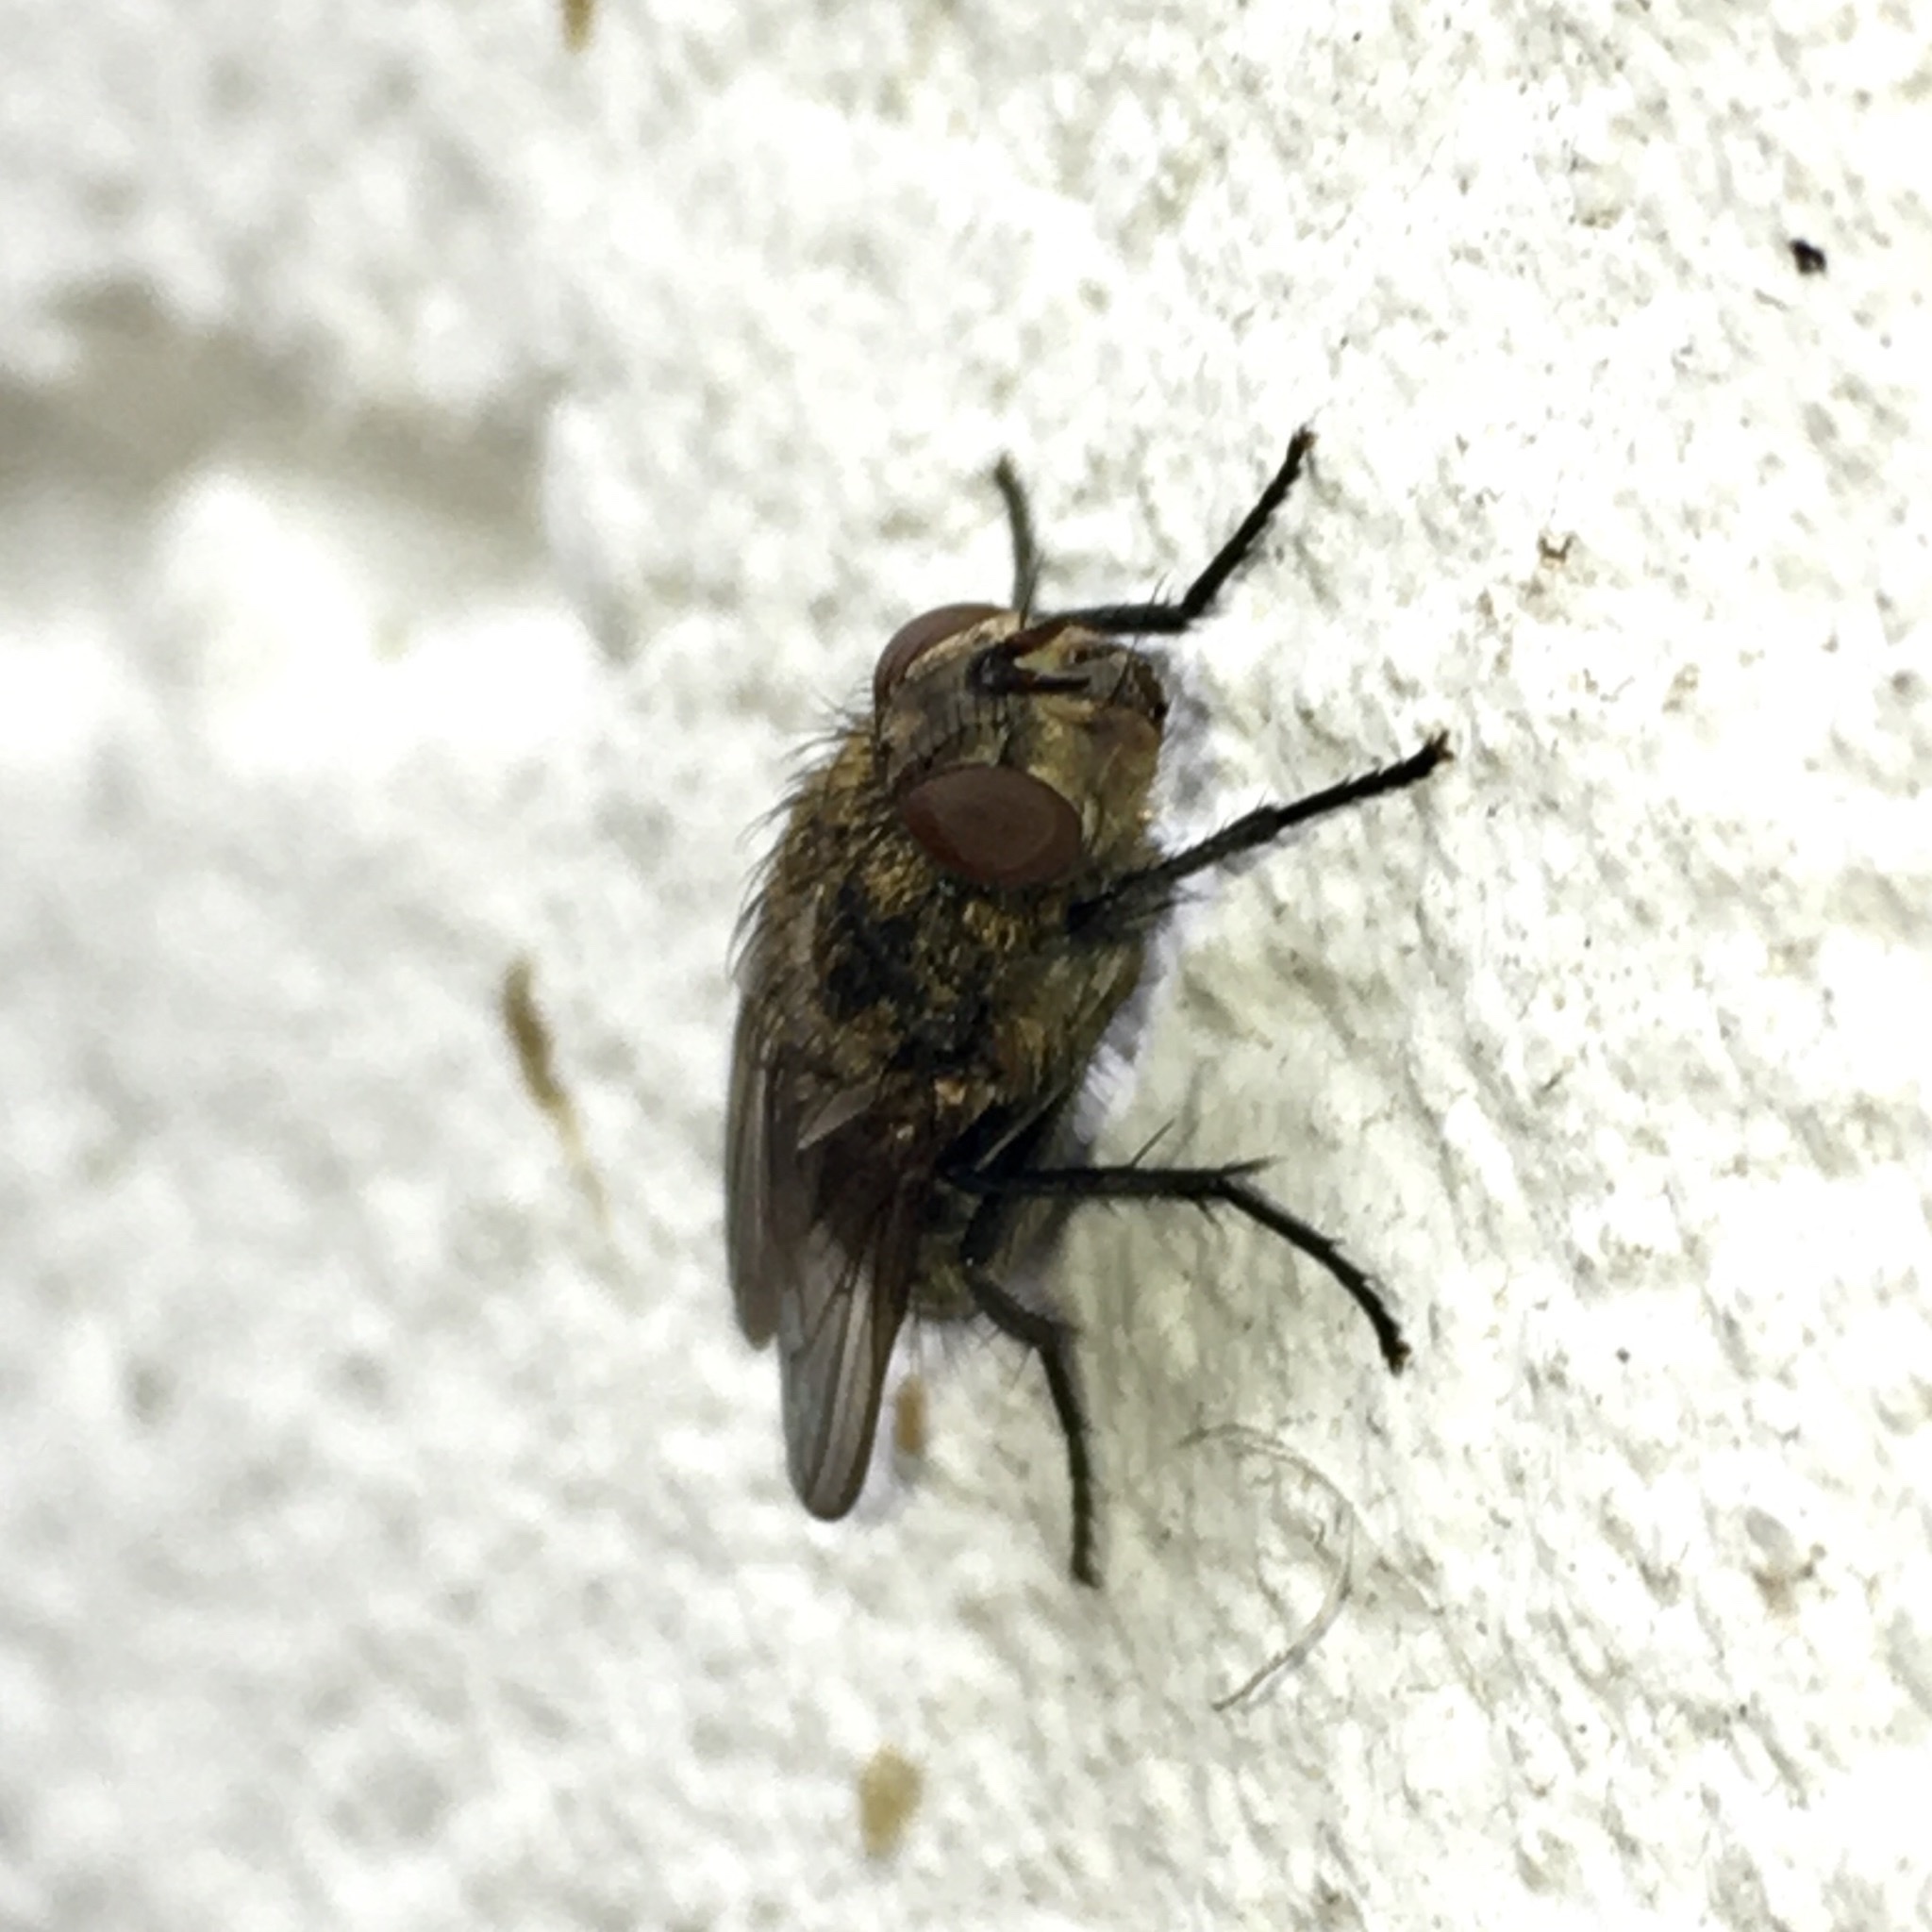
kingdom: Animalia
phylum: Arthropoda
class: Insecta
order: Diptera
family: Polleniidae
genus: Pollenia
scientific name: Pollenia
